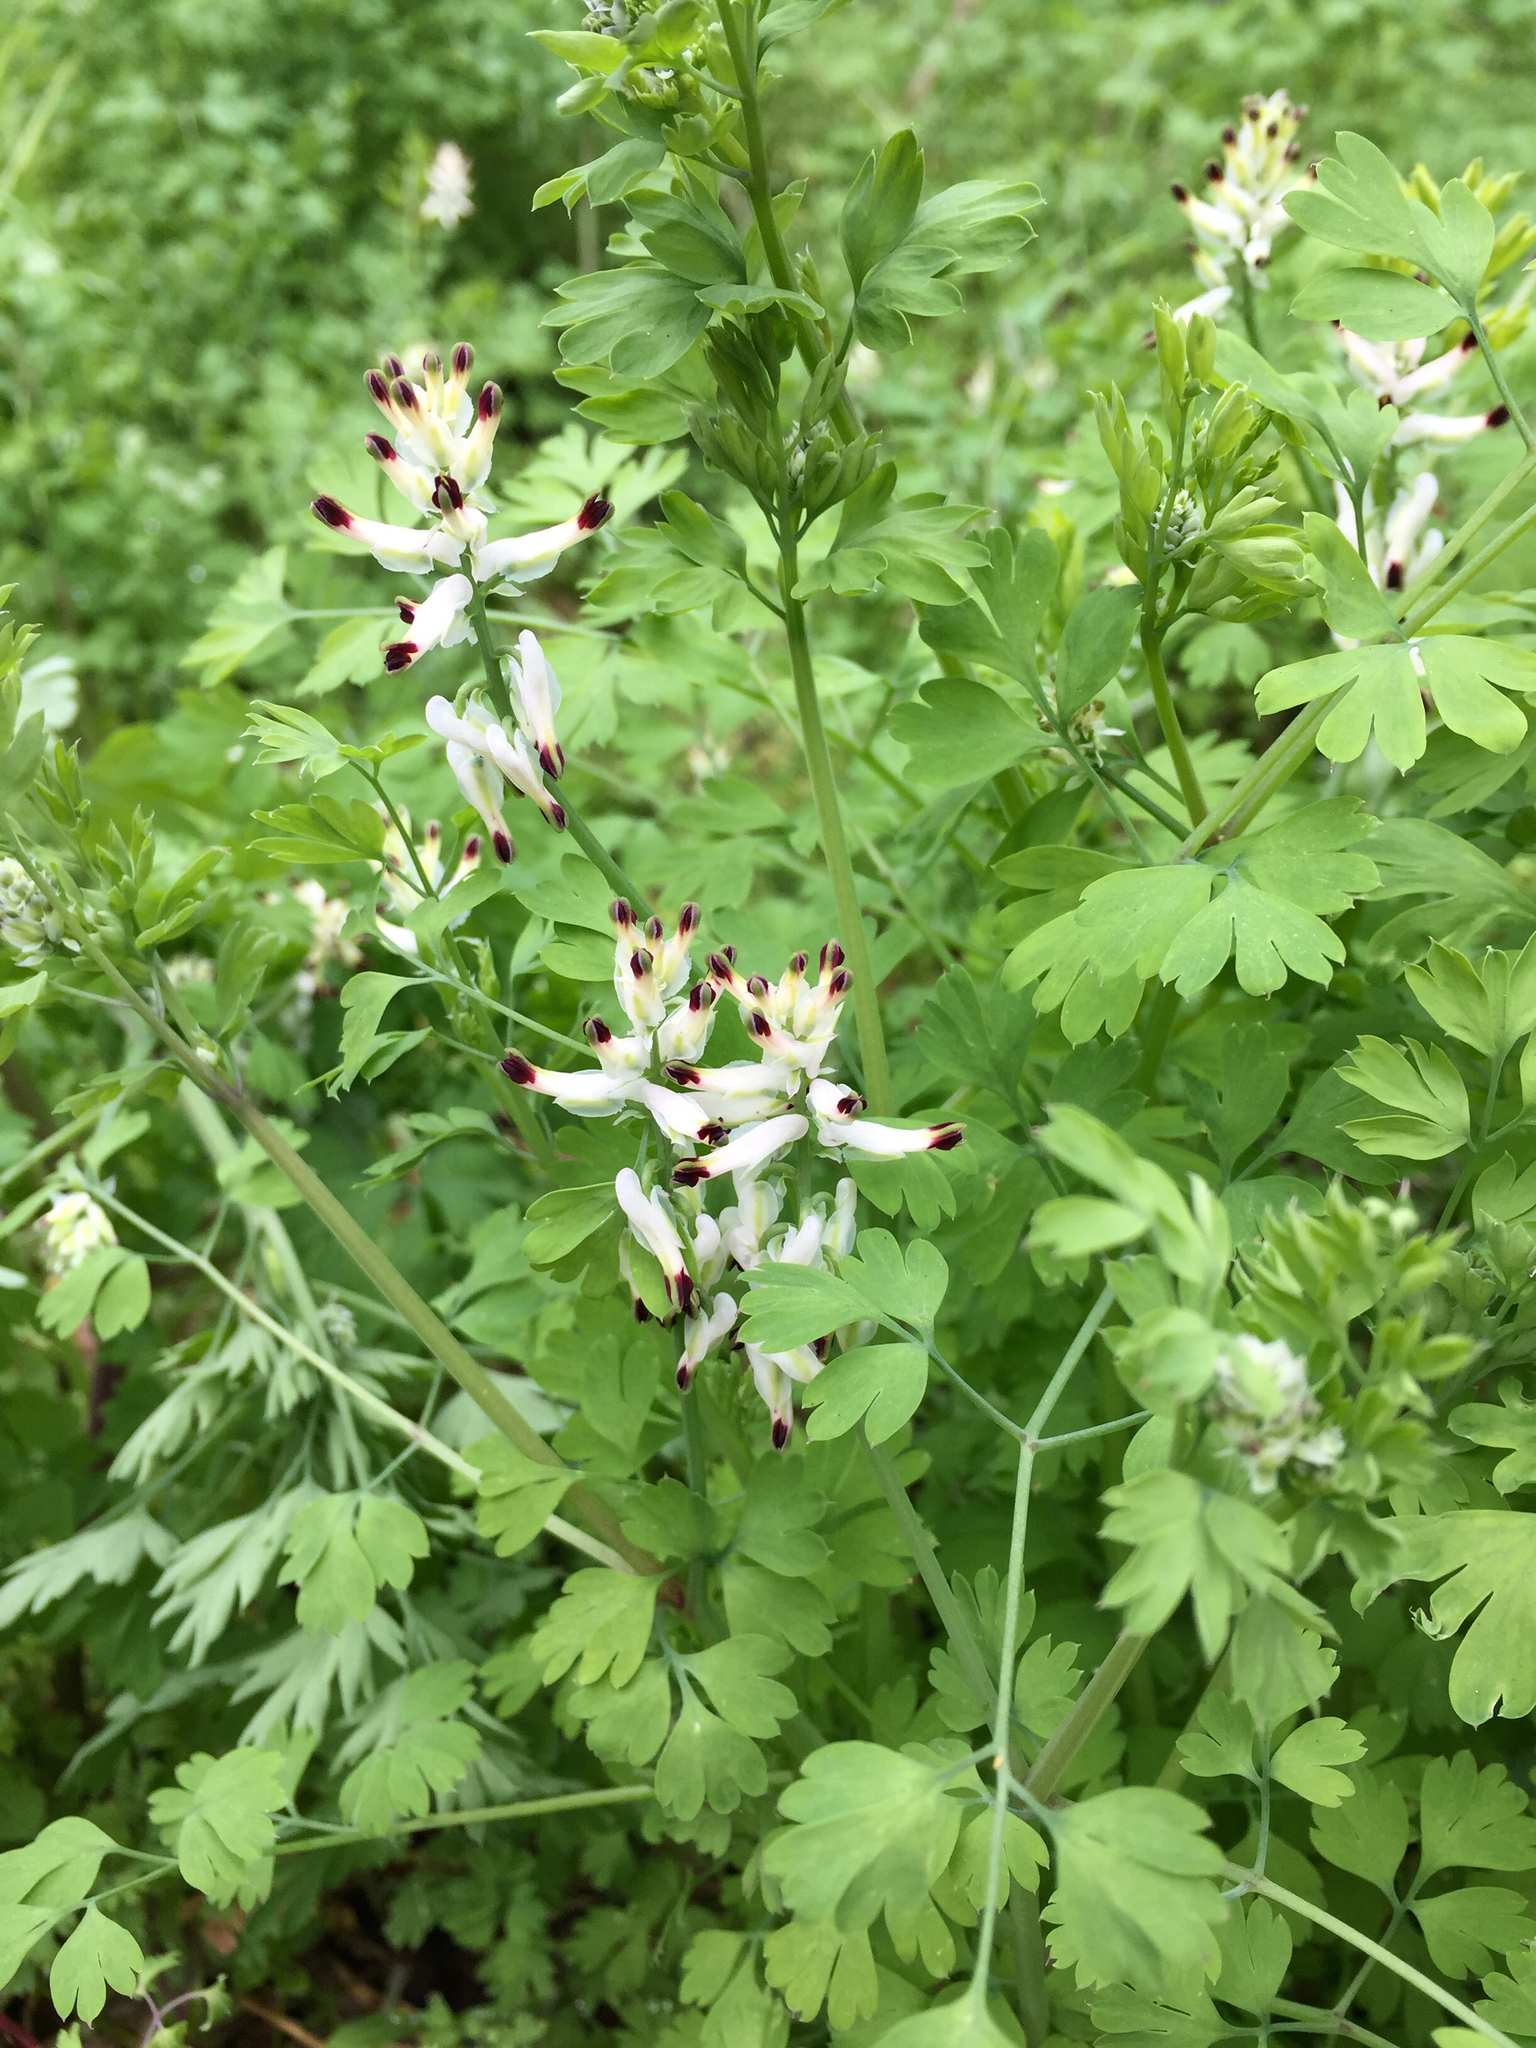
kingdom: Plantae
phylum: Tracheophyta
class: Magnoliopsida
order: Ranunculales
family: Papaveraceae
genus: Fumaria
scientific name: Fumaria capreolata
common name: White ramping-fumitory
